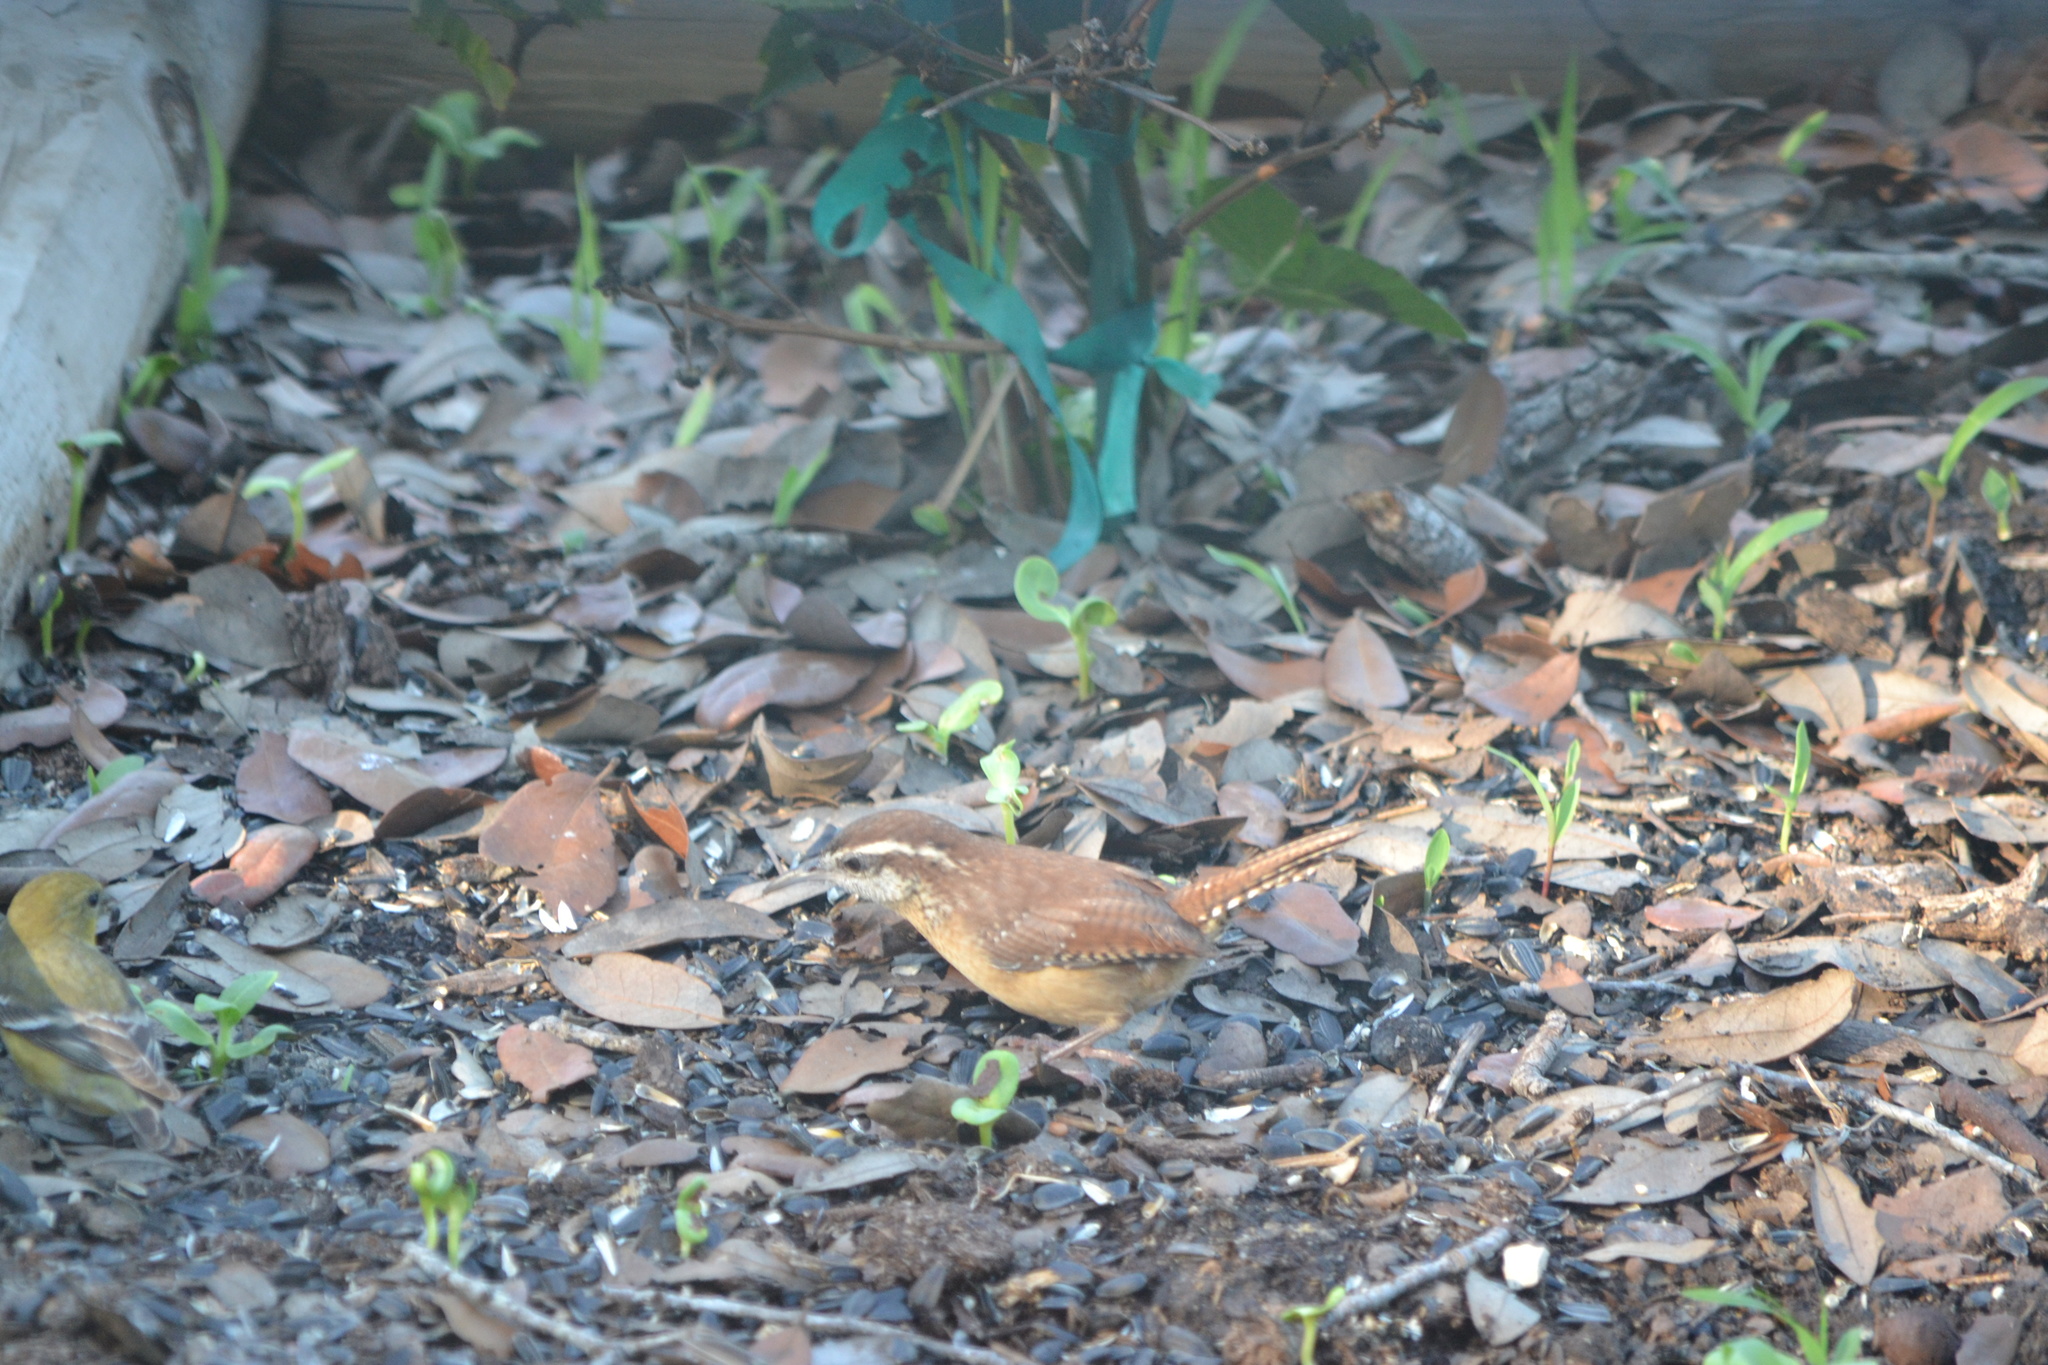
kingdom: Animalia
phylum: Chordata
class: Aves
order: Passeriformes
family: Troglodytidae
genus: Thryothorus
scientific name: Thryothorus ludovicianus
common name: Carolina wren
